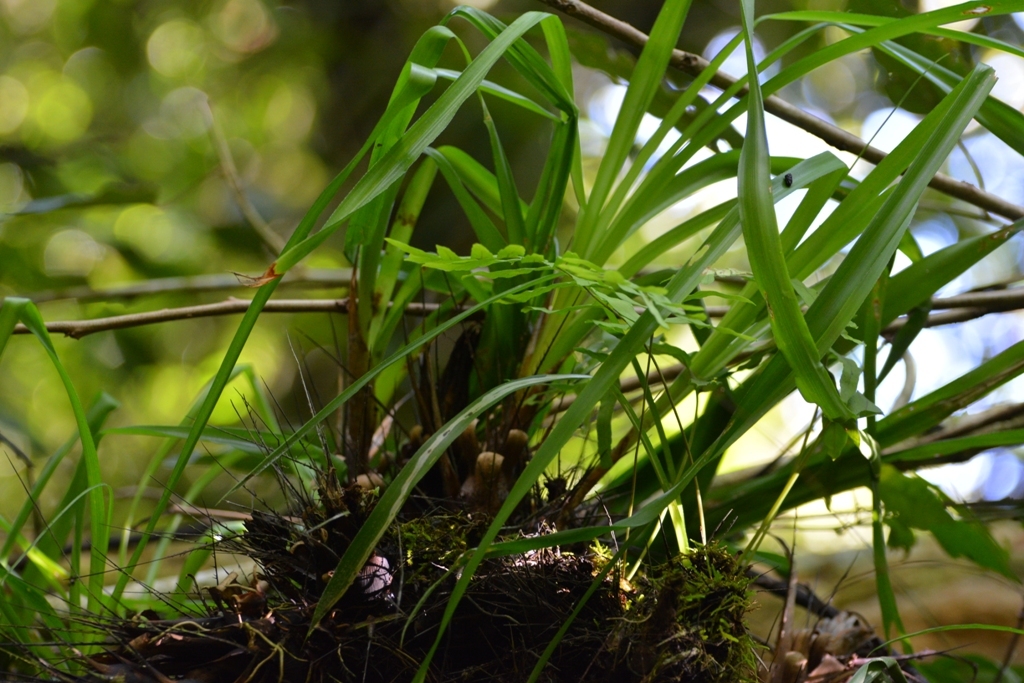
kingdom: Plantae
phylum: Tracheophyta
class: Liliopsida
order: Poales
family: Bromeliaceae
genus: Pitcairnia
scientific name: Pitcairnia heterophylla
